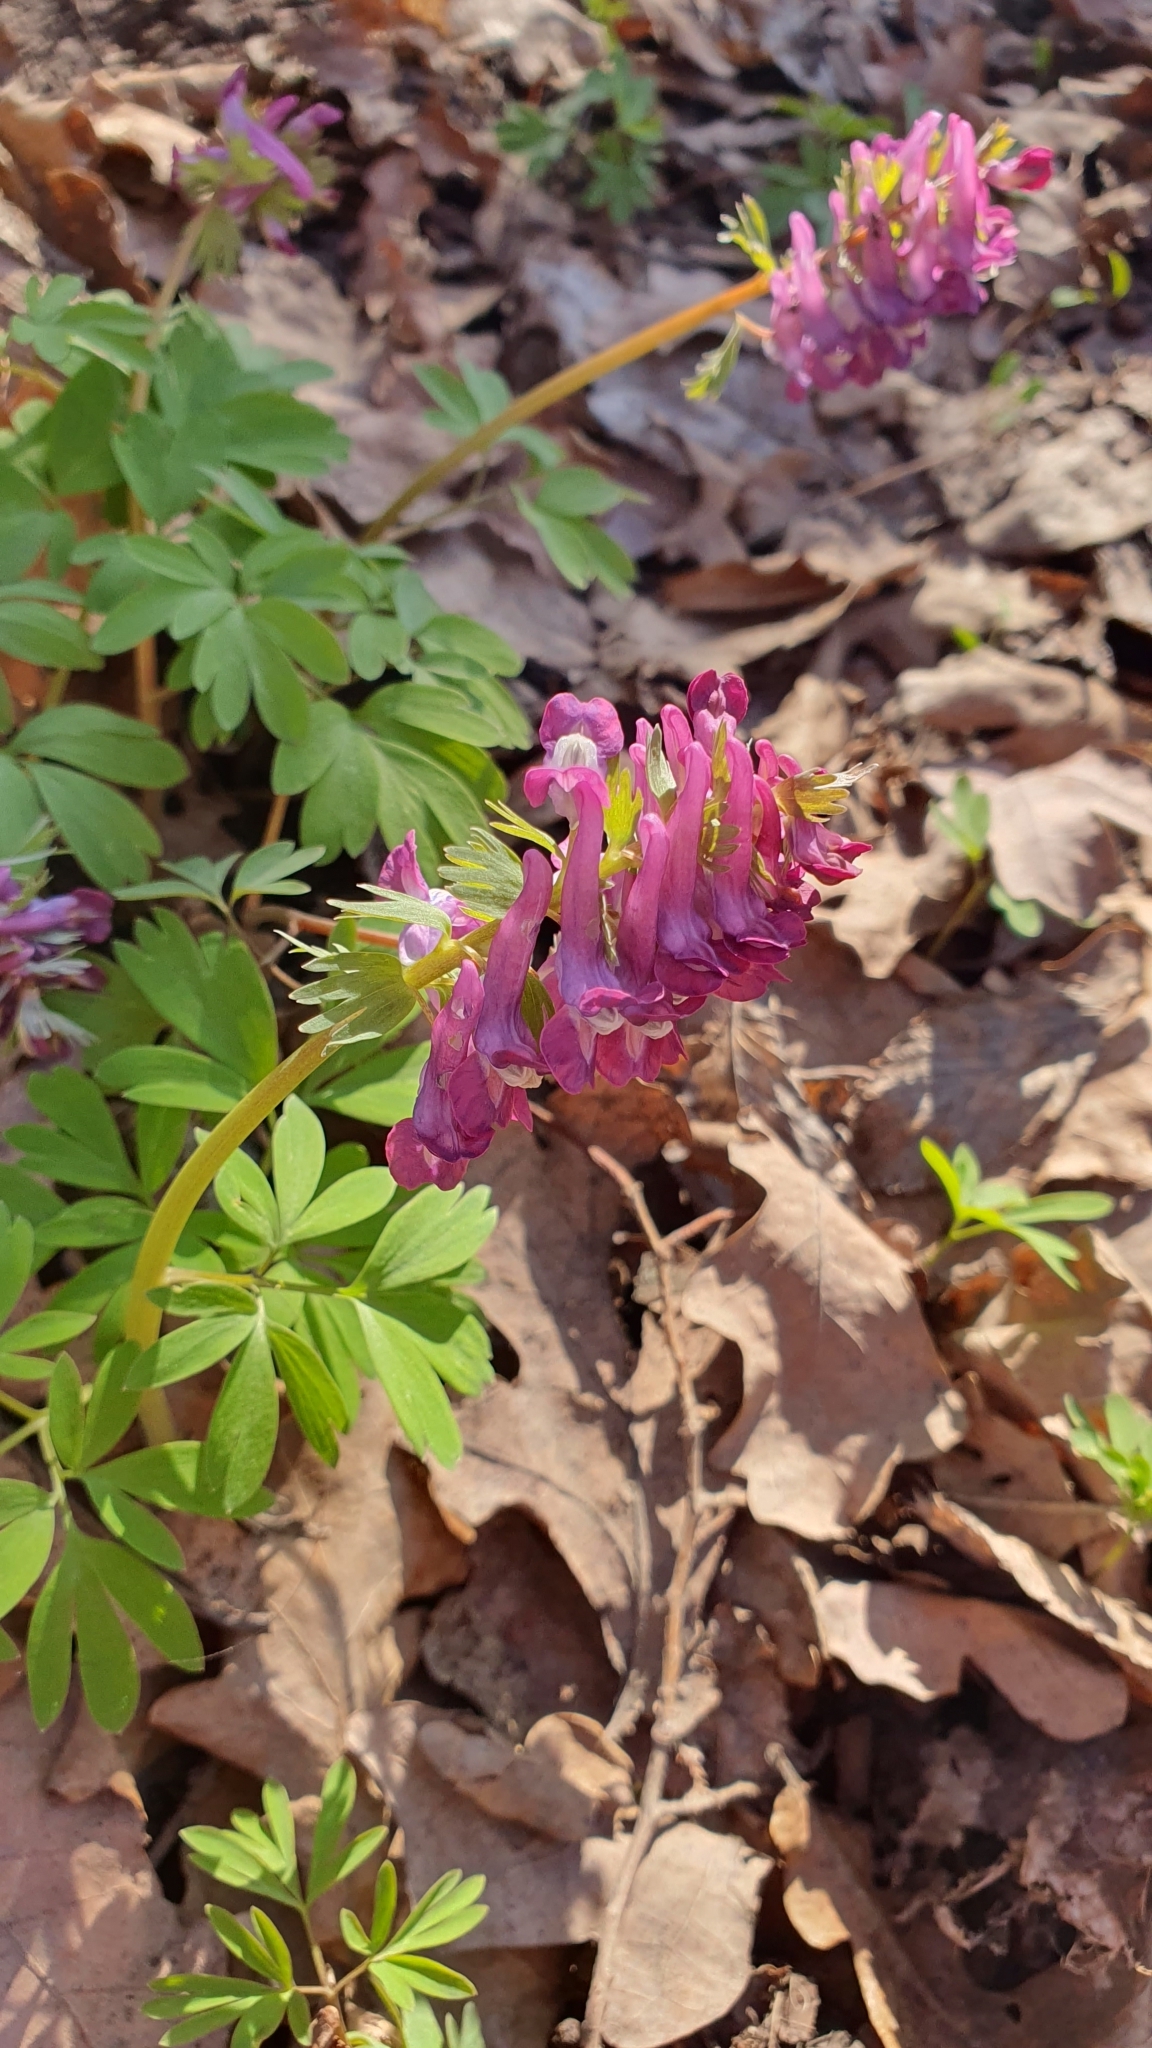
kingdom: Plantae
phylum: Tracheophyta
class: Magnoliopsida
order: Ranunculales
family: Papaveraceae
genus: Corydalis
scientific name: Corydalis solida
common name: Bird-in-a-bush
